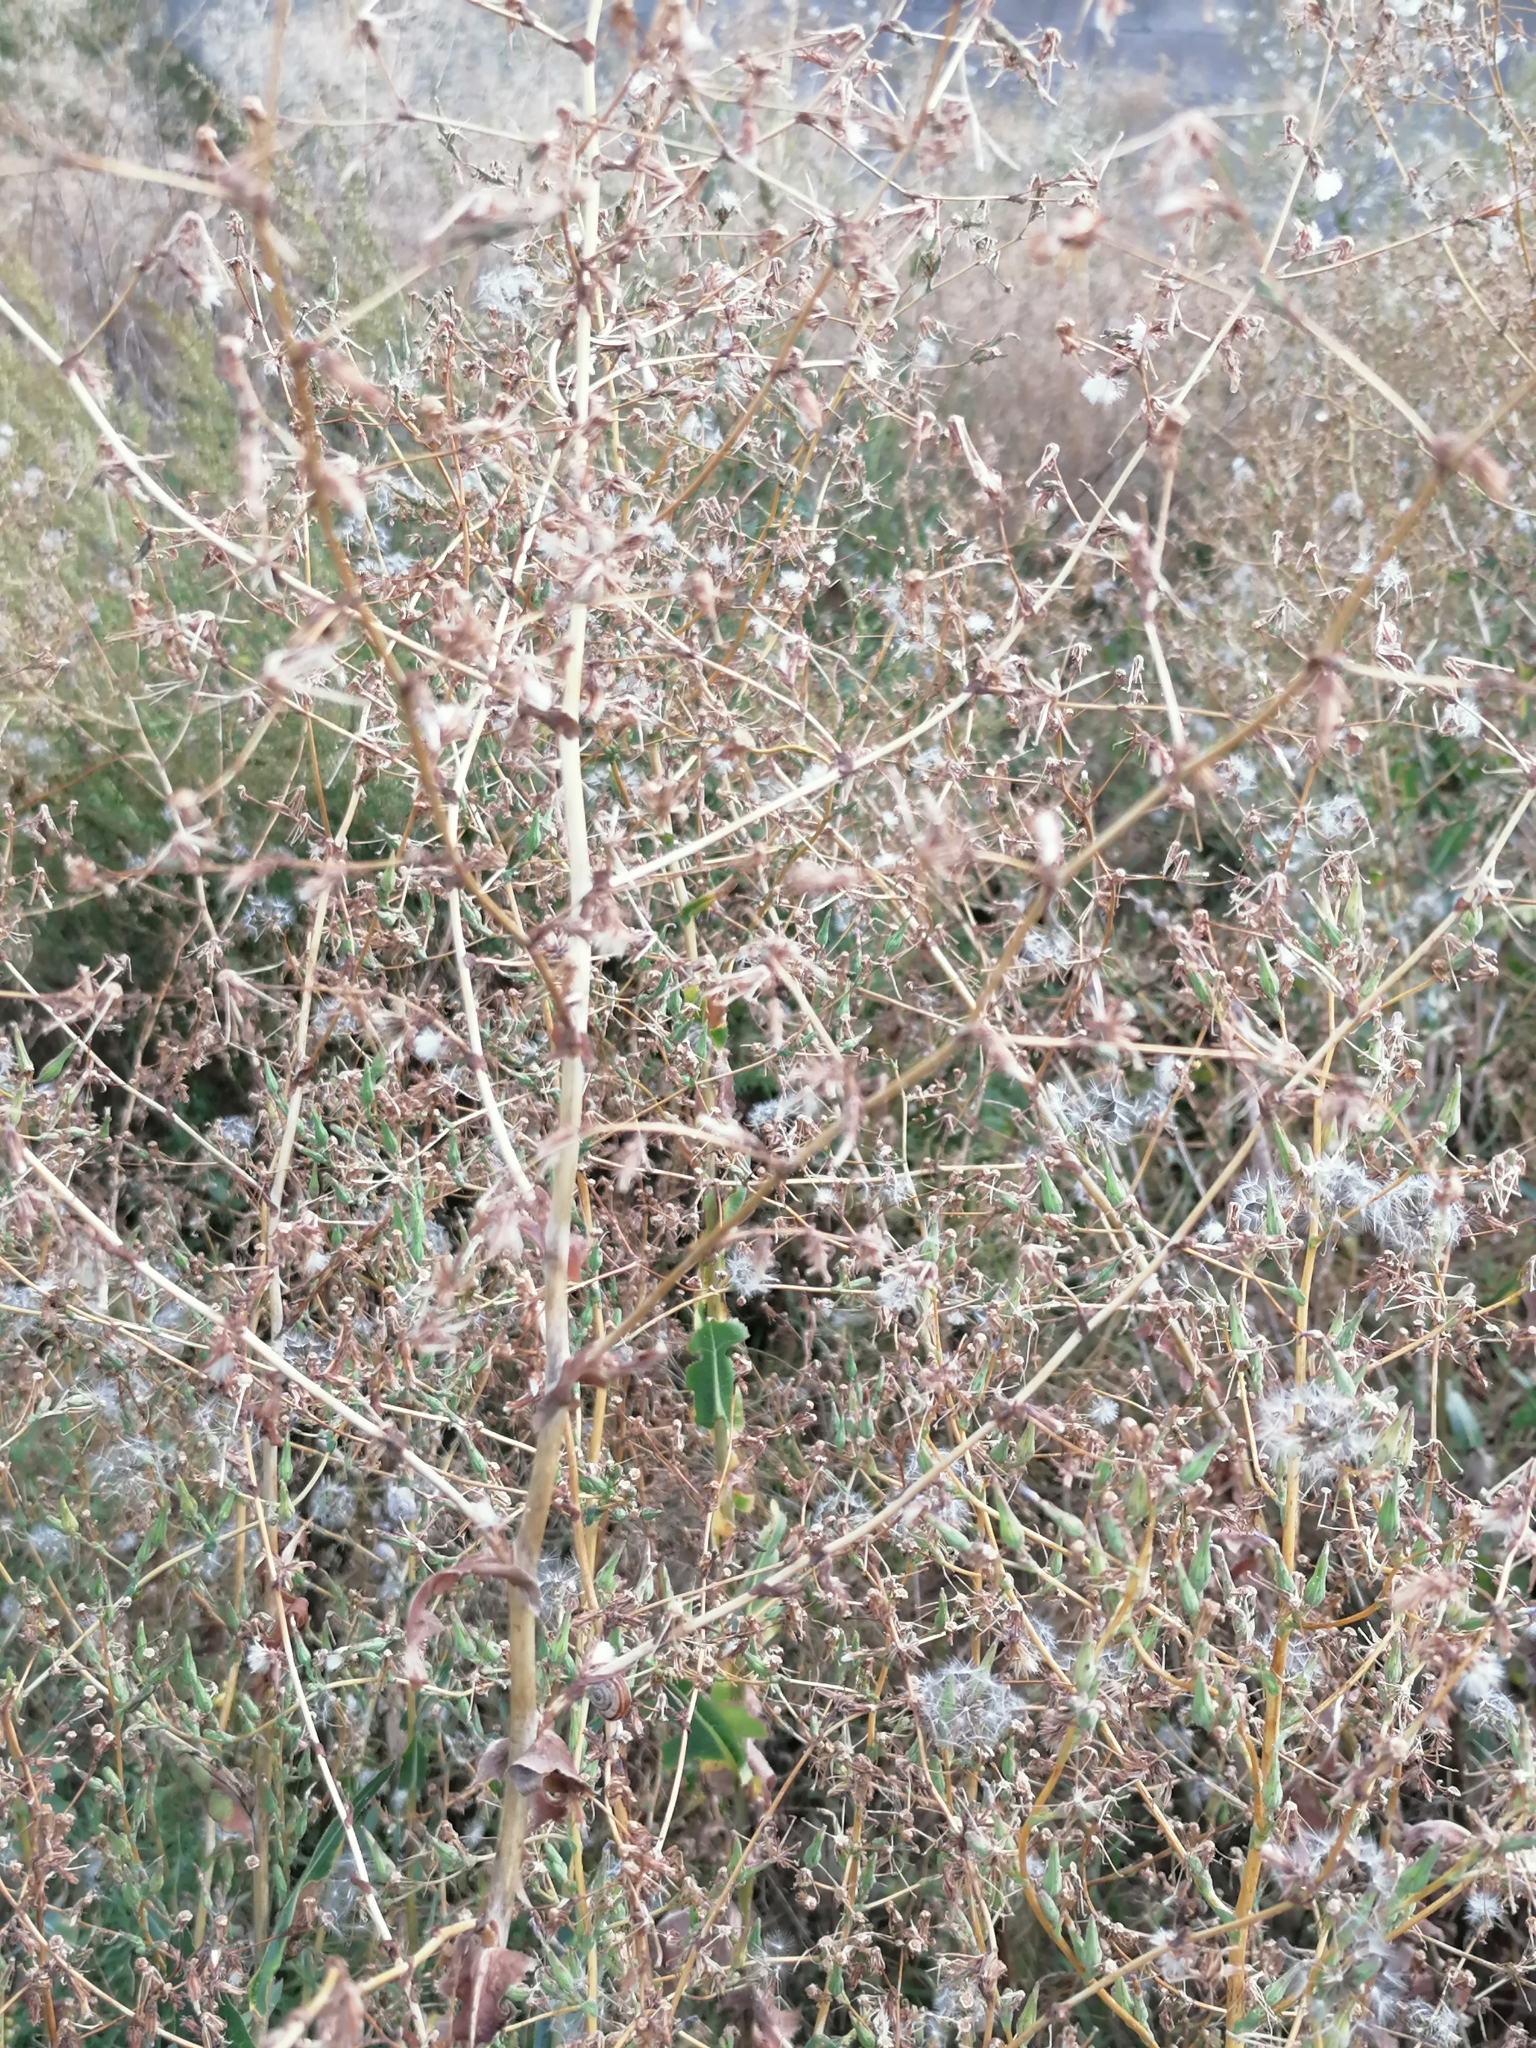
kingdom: Plantae
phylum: Tracheophyta
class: Magnoliopsida
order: Asterales
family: Asteraceae
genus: Lactuca
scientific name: Lactuca serriola
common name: Prickly lettuce
